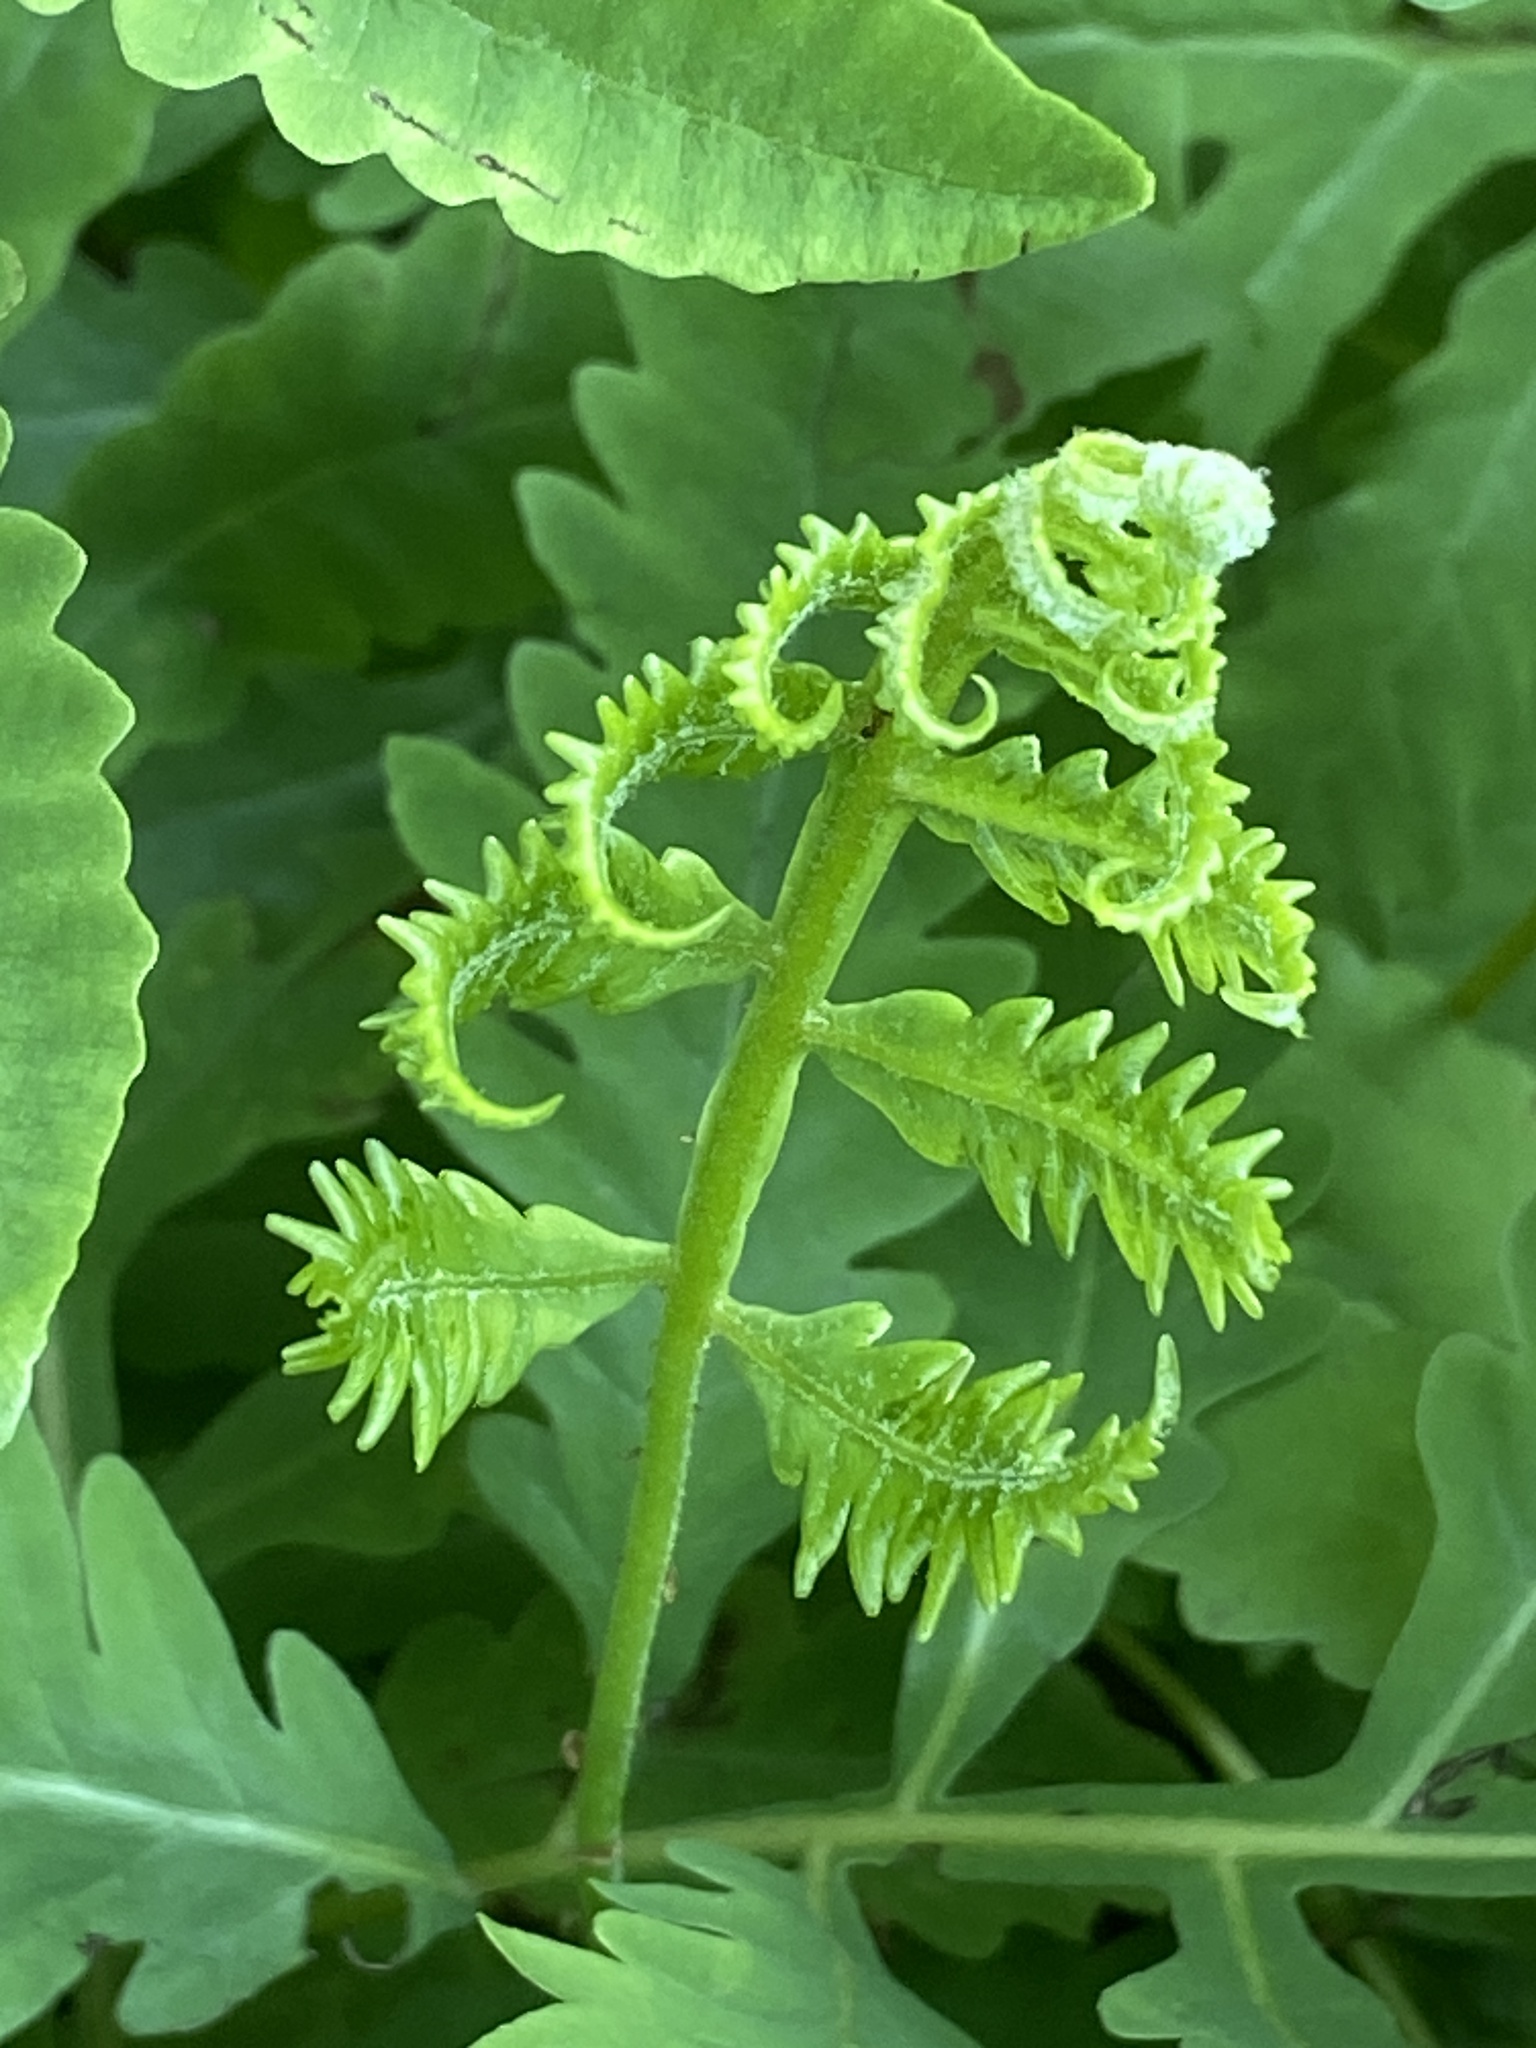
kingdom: Plantae
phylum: Tracheophyta
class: Polypodiopsida
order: Polypodiales
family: Onocleaceae
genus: Onoclea
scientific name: Onoclea sensibilis
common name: Sensitive fern
